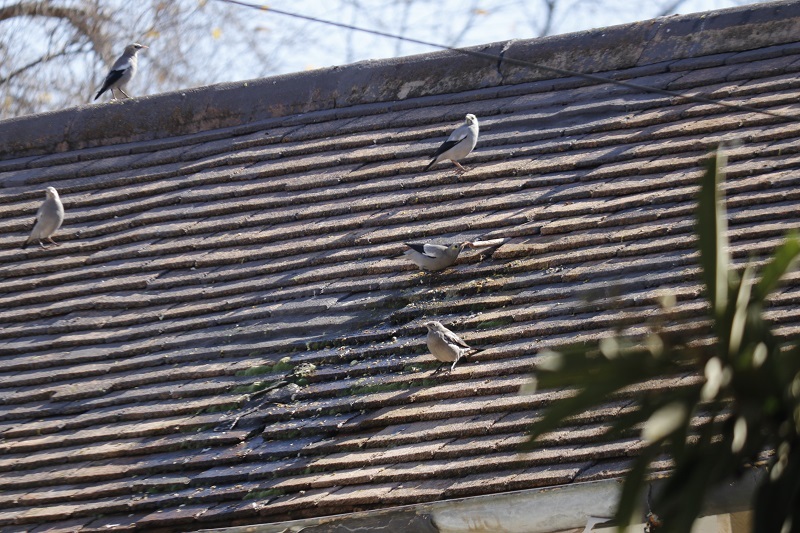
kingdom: Animalia
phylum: Chordata
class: Aves
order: Passeriformes
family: Sturnidae
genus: Creatophora
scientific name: Creatophora cinerea
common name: Wattled starling
